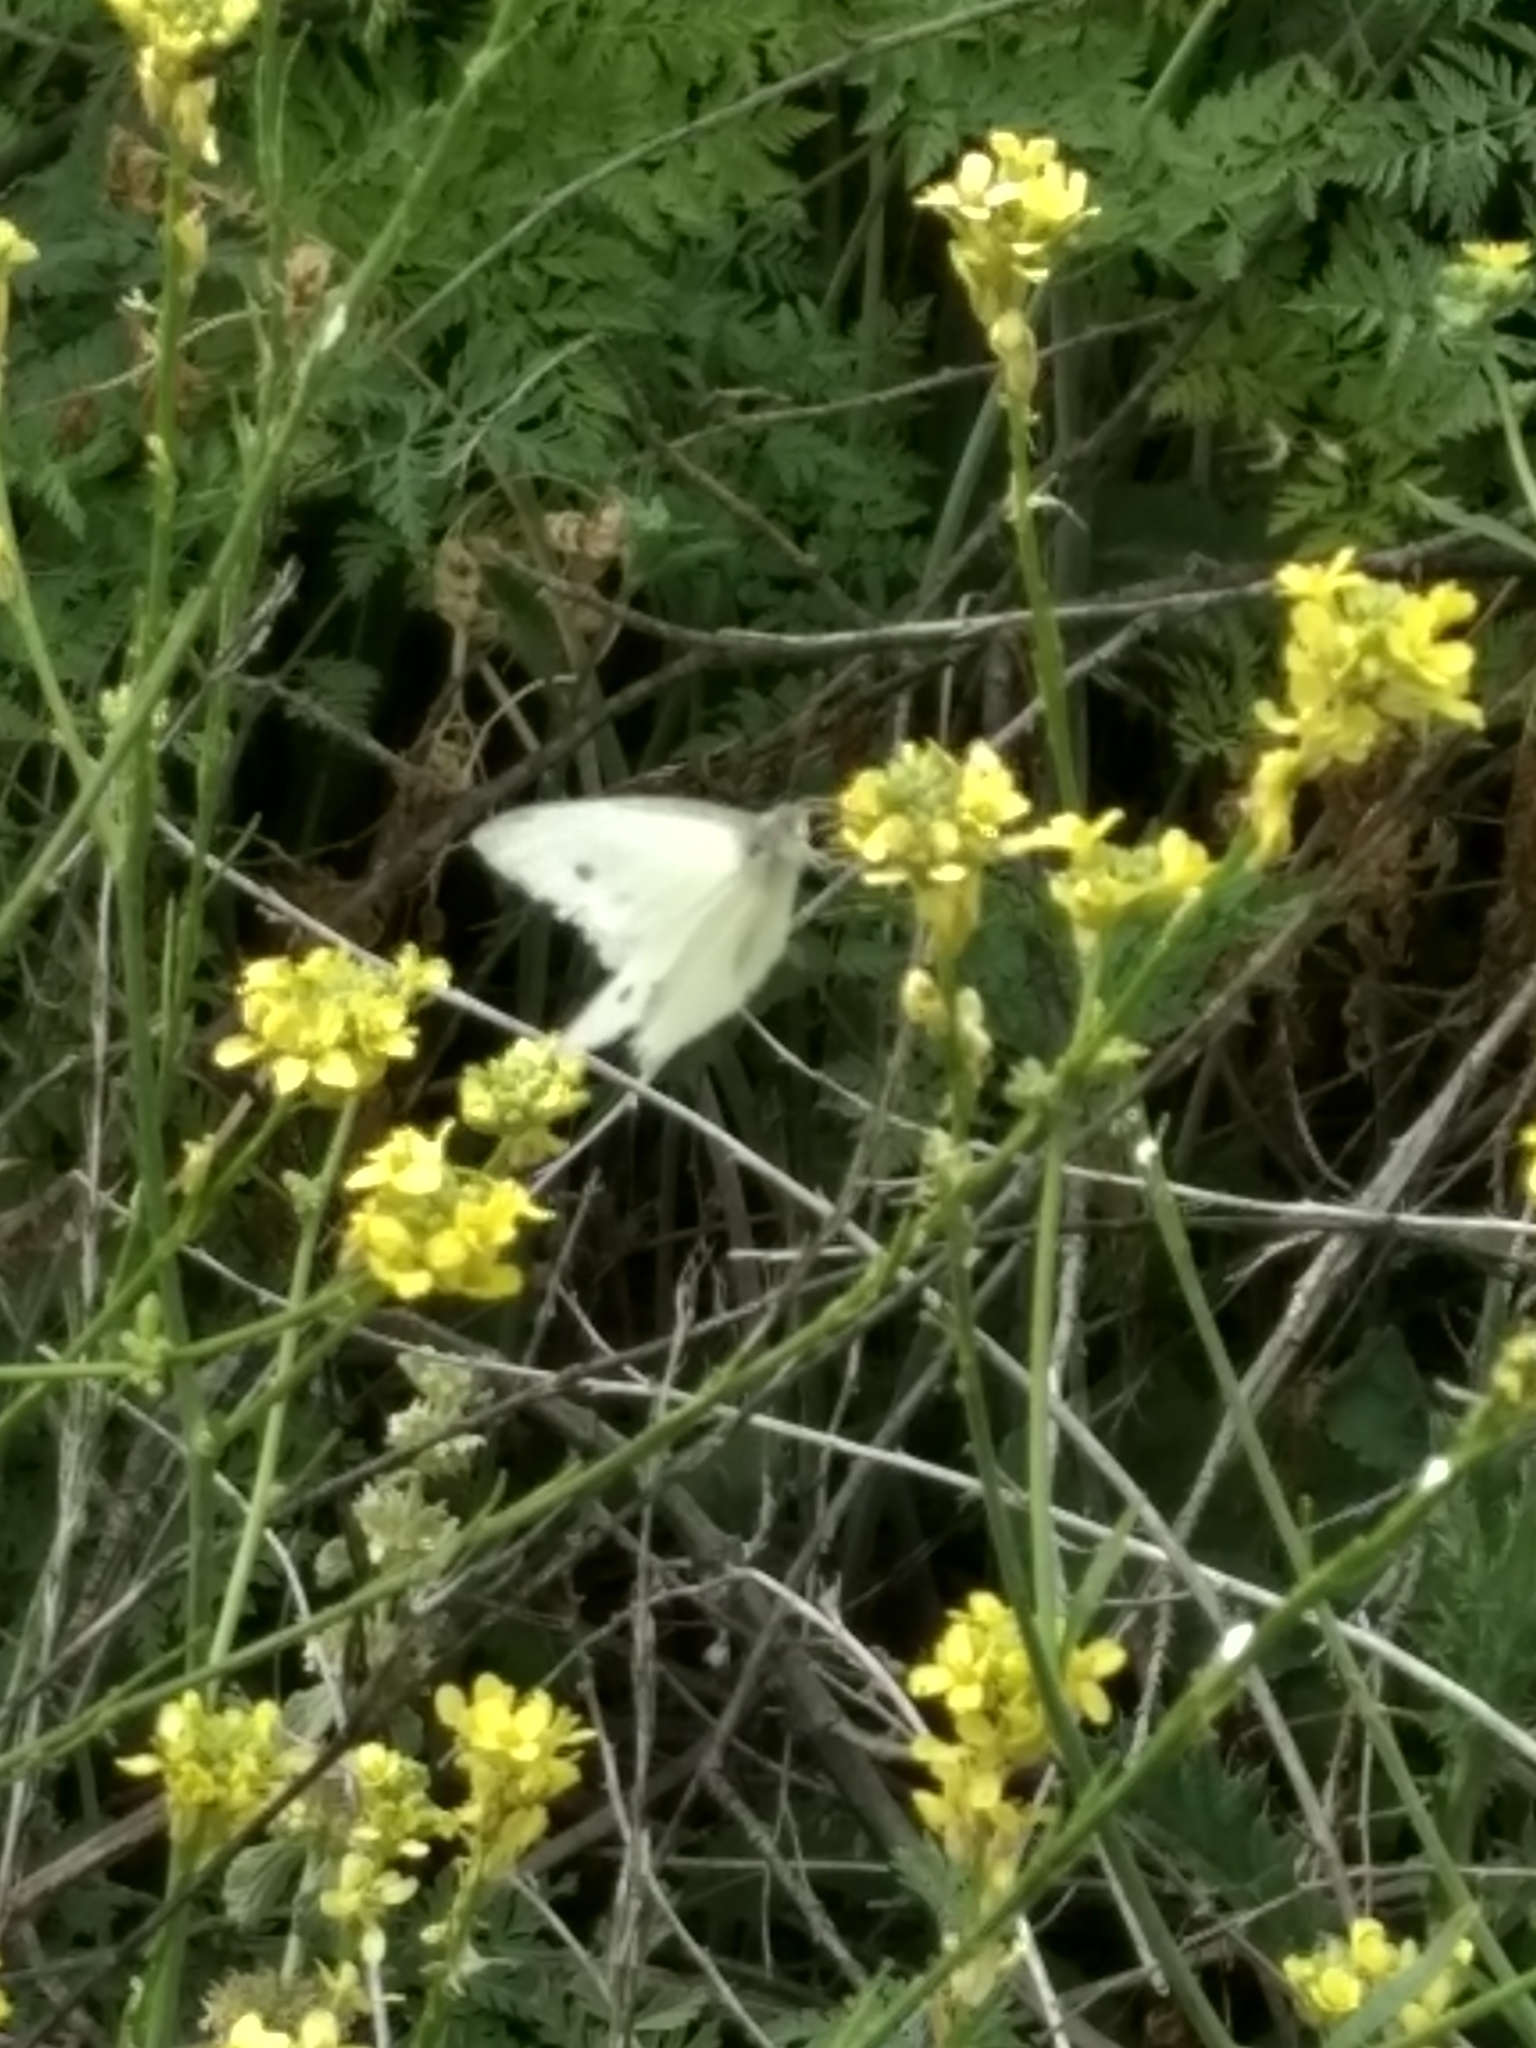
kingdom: Animalia
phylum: Arthropoda
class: Insecta
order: Lepidoptera
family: Pieridae
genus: Pieris
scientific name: Pieris rapae
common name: Small white
